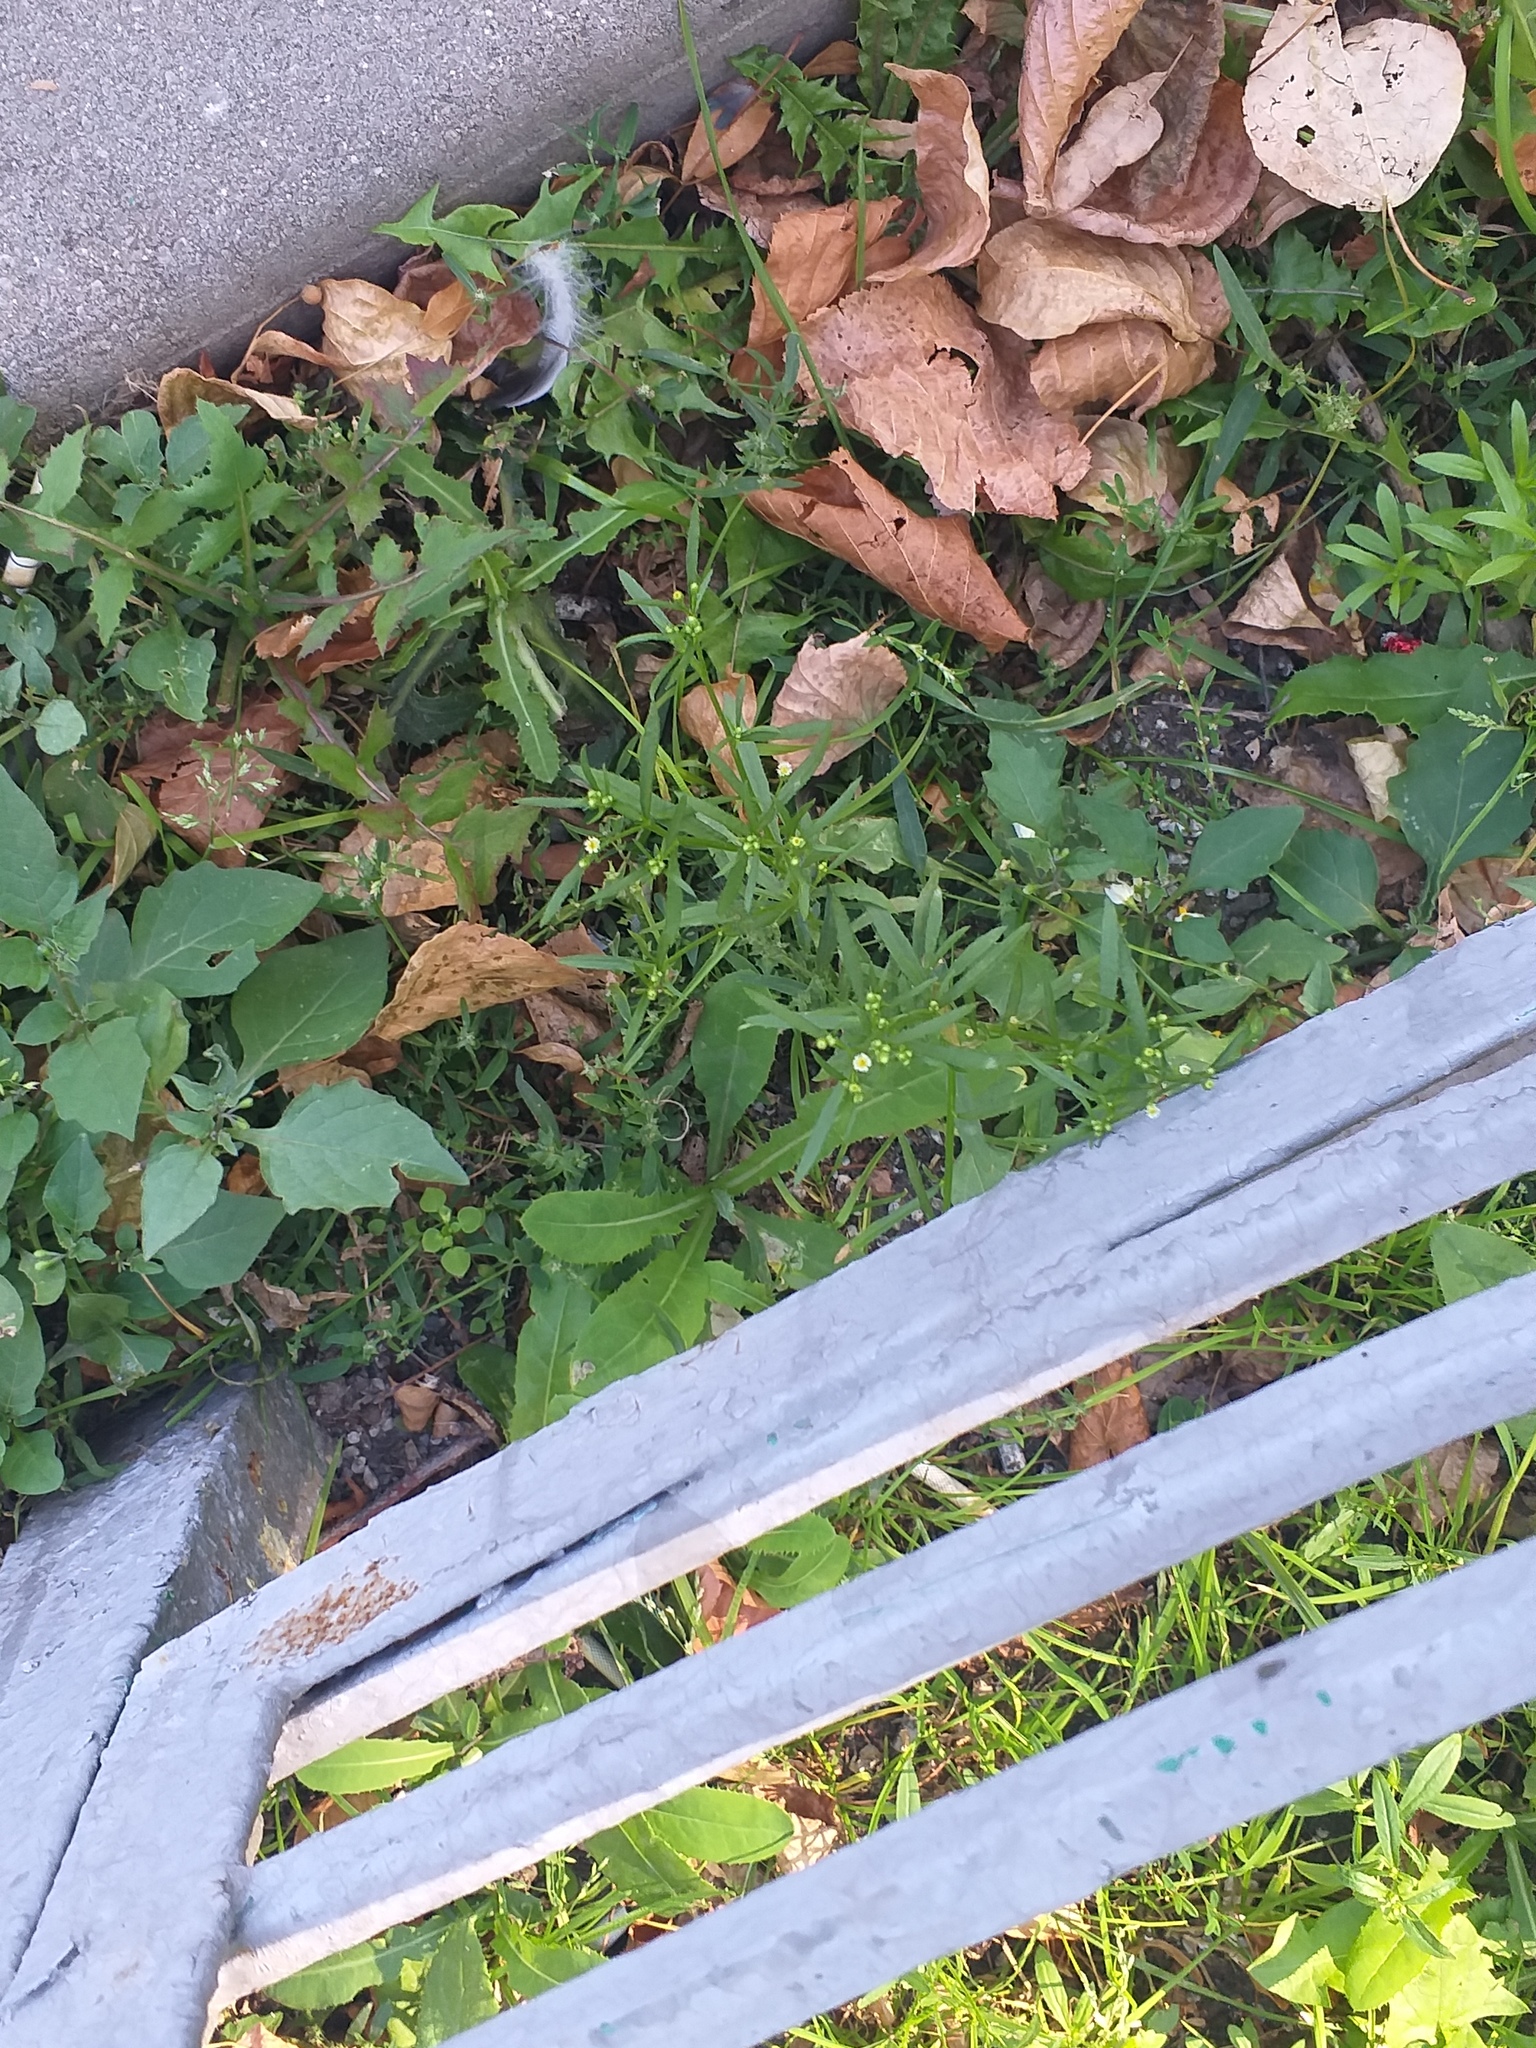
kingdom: Plantae
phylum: Tracheophyta
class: Magnoliopsida
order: Asterales
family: Asteraceae
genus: Erigeron
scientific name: Erigeron canadensis
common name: Canadian fleabane
